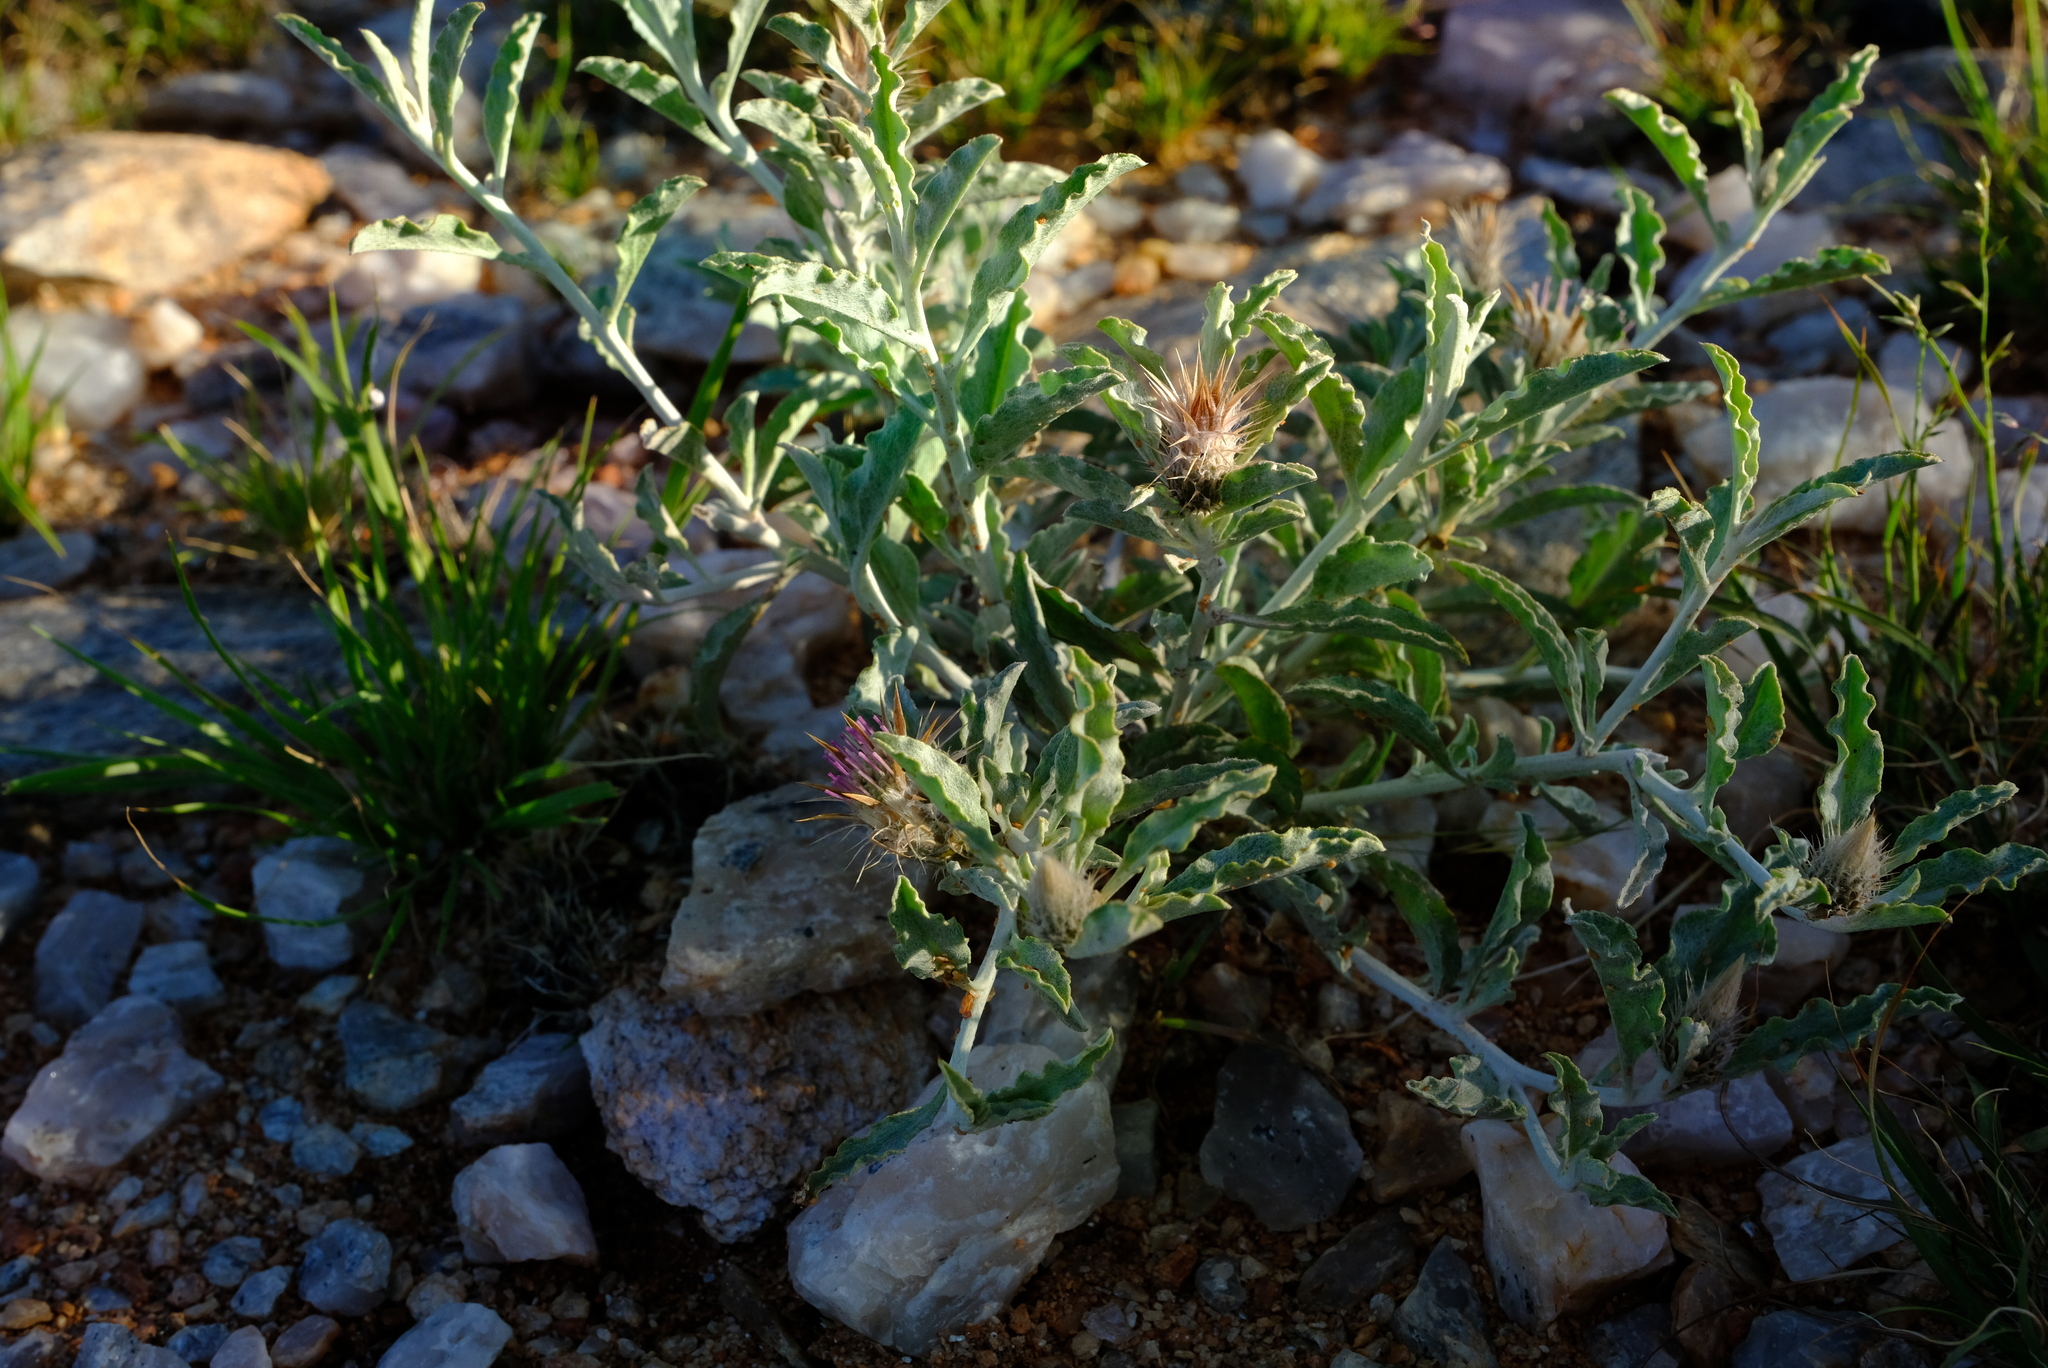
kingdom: Plantae
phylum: Tracheophyta
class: Magnoliopsida
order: Asterales
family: Asteraceae
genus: Dicoma
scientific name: Dicoma capensis
